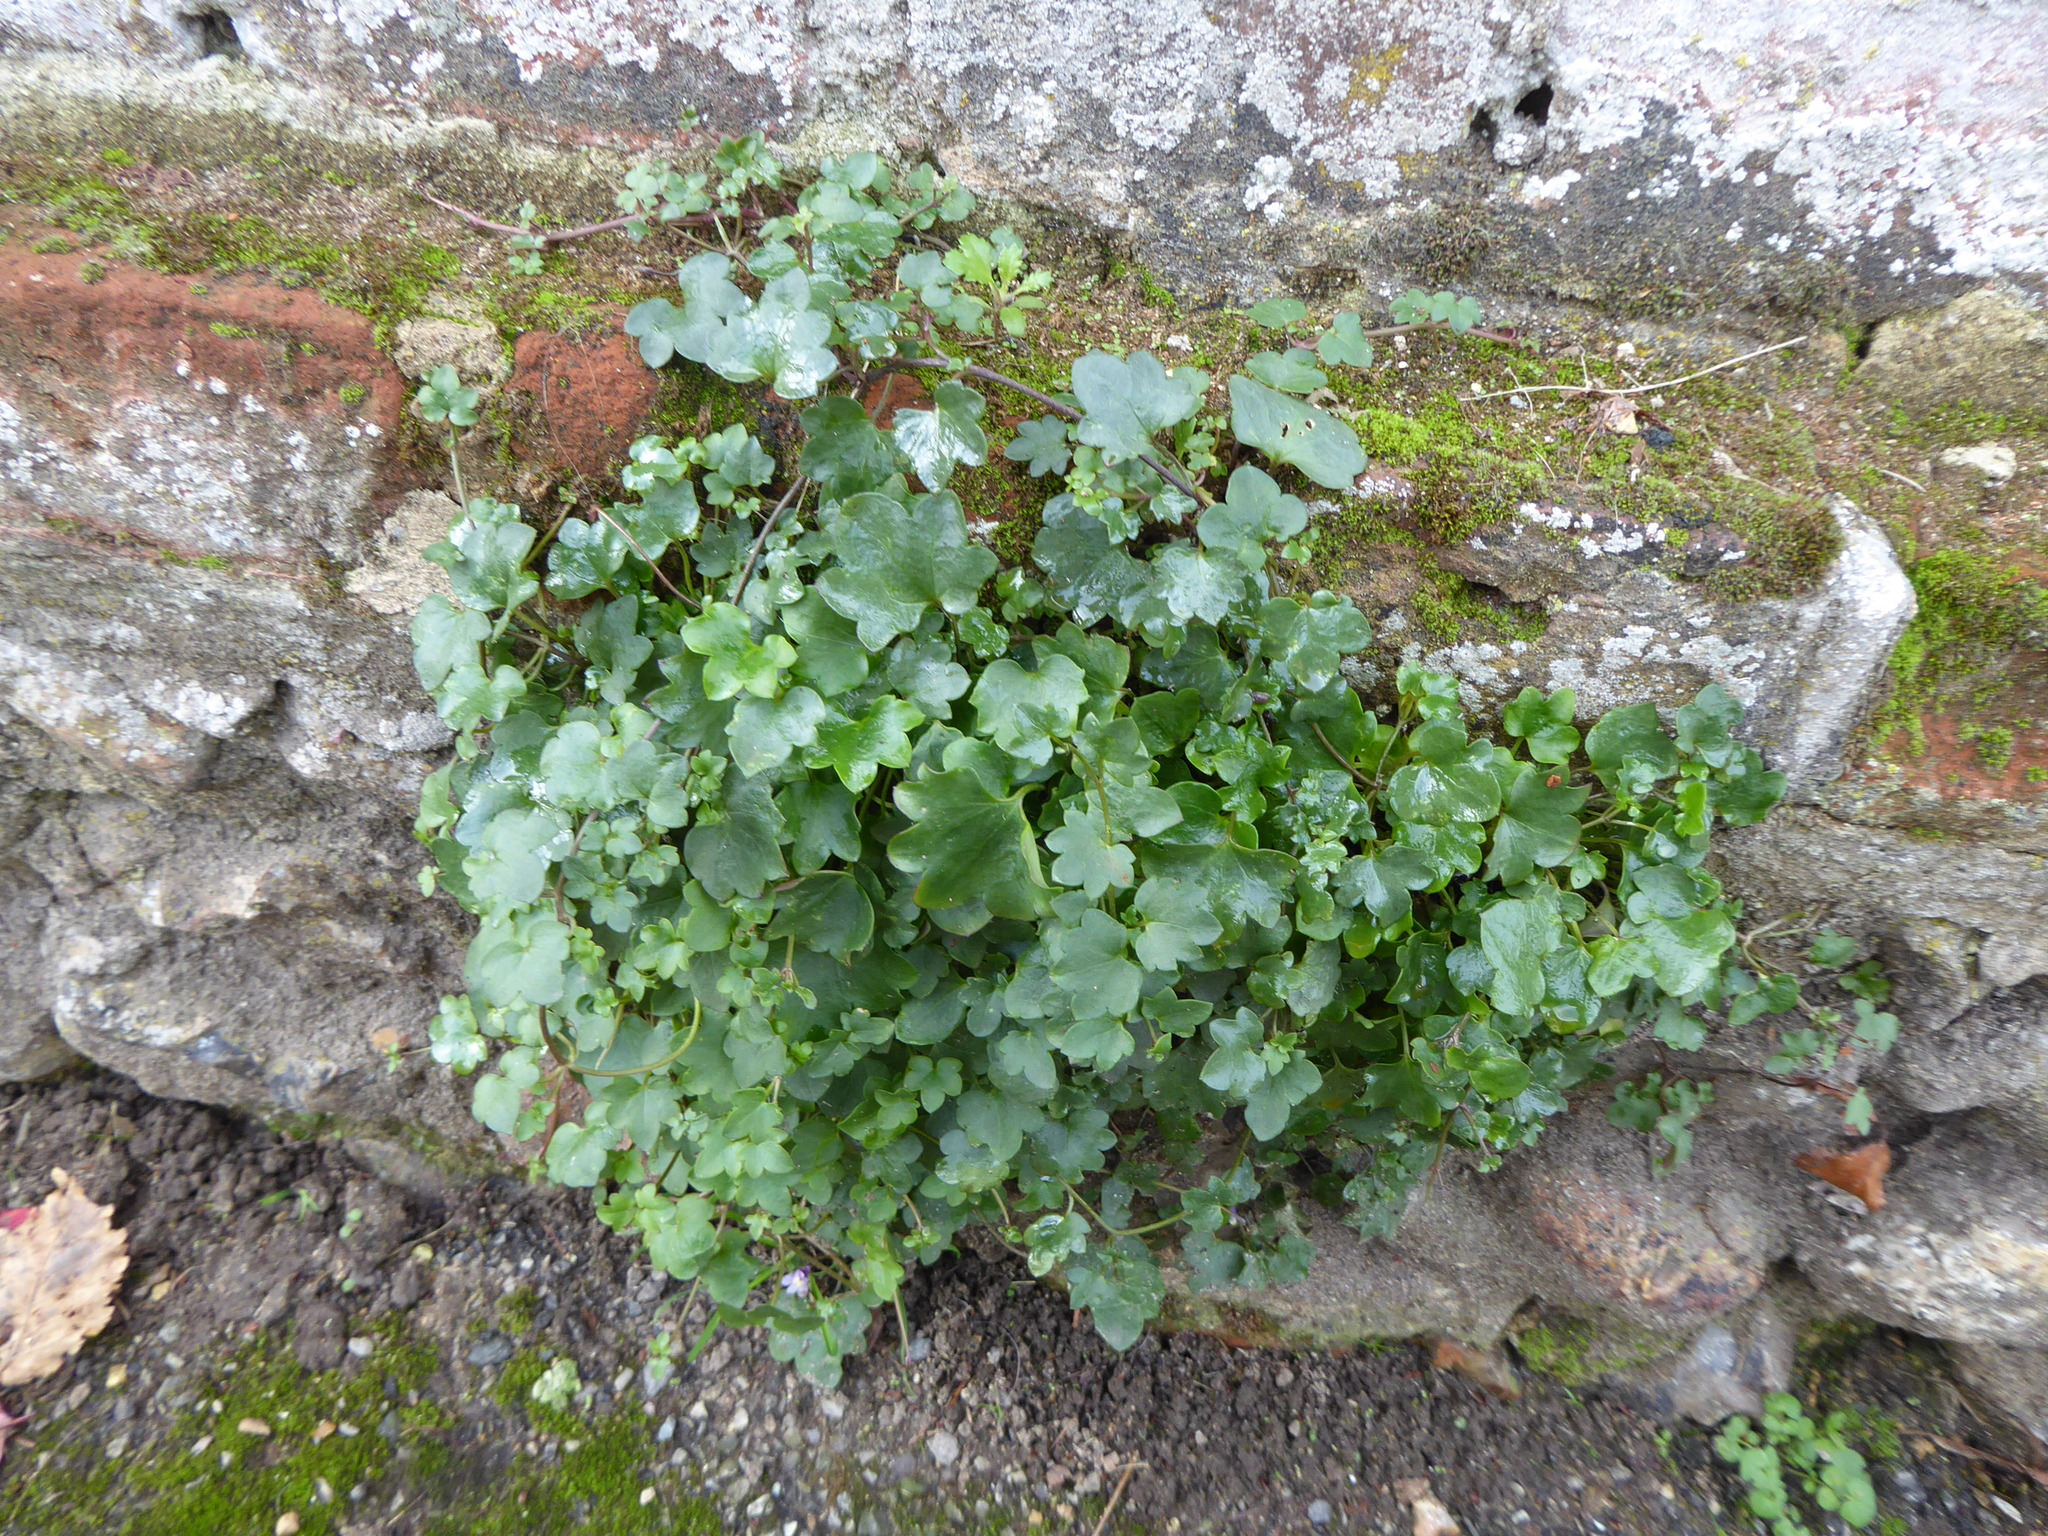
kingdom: Plantae
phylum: Tracheophyta
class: Magnoliopsida
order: Lamiales
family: Plantaginaceae
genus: Cymbalaria
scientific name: Cymbalaria muralis
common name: Ivy-leaved toadflax
